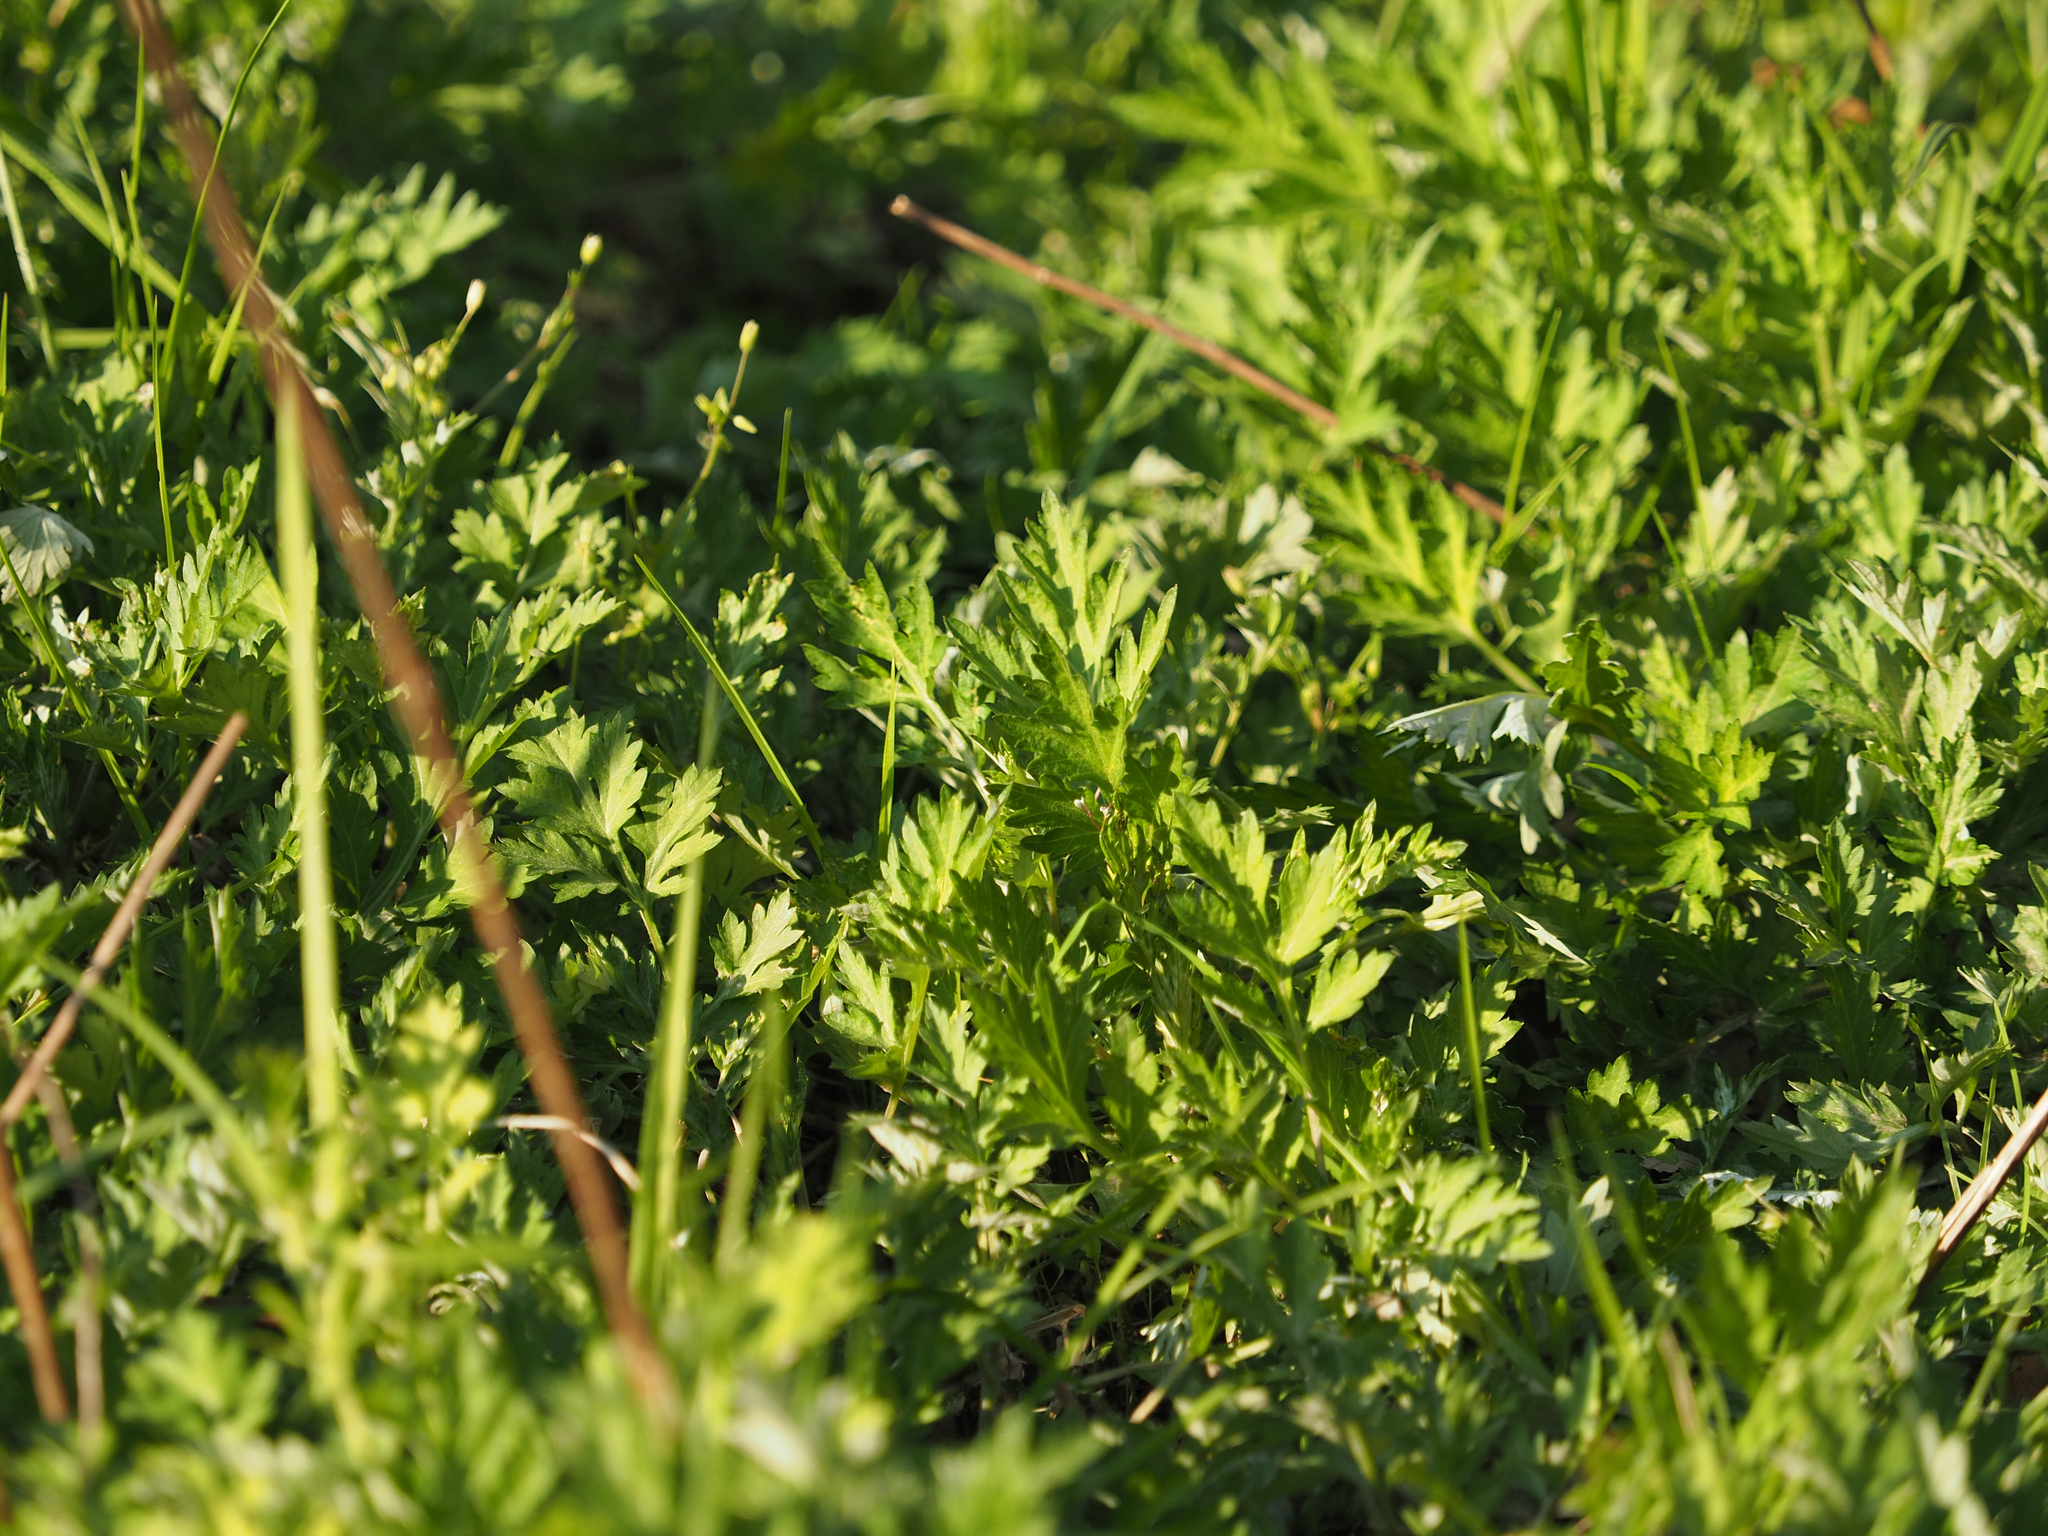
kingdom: Plantae
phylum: Tracheophyta
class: Magnoliopsida
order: Asterales
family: Asteraceae
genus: Artemisia
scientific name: Artemisia vulgaris
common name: Mugwort
